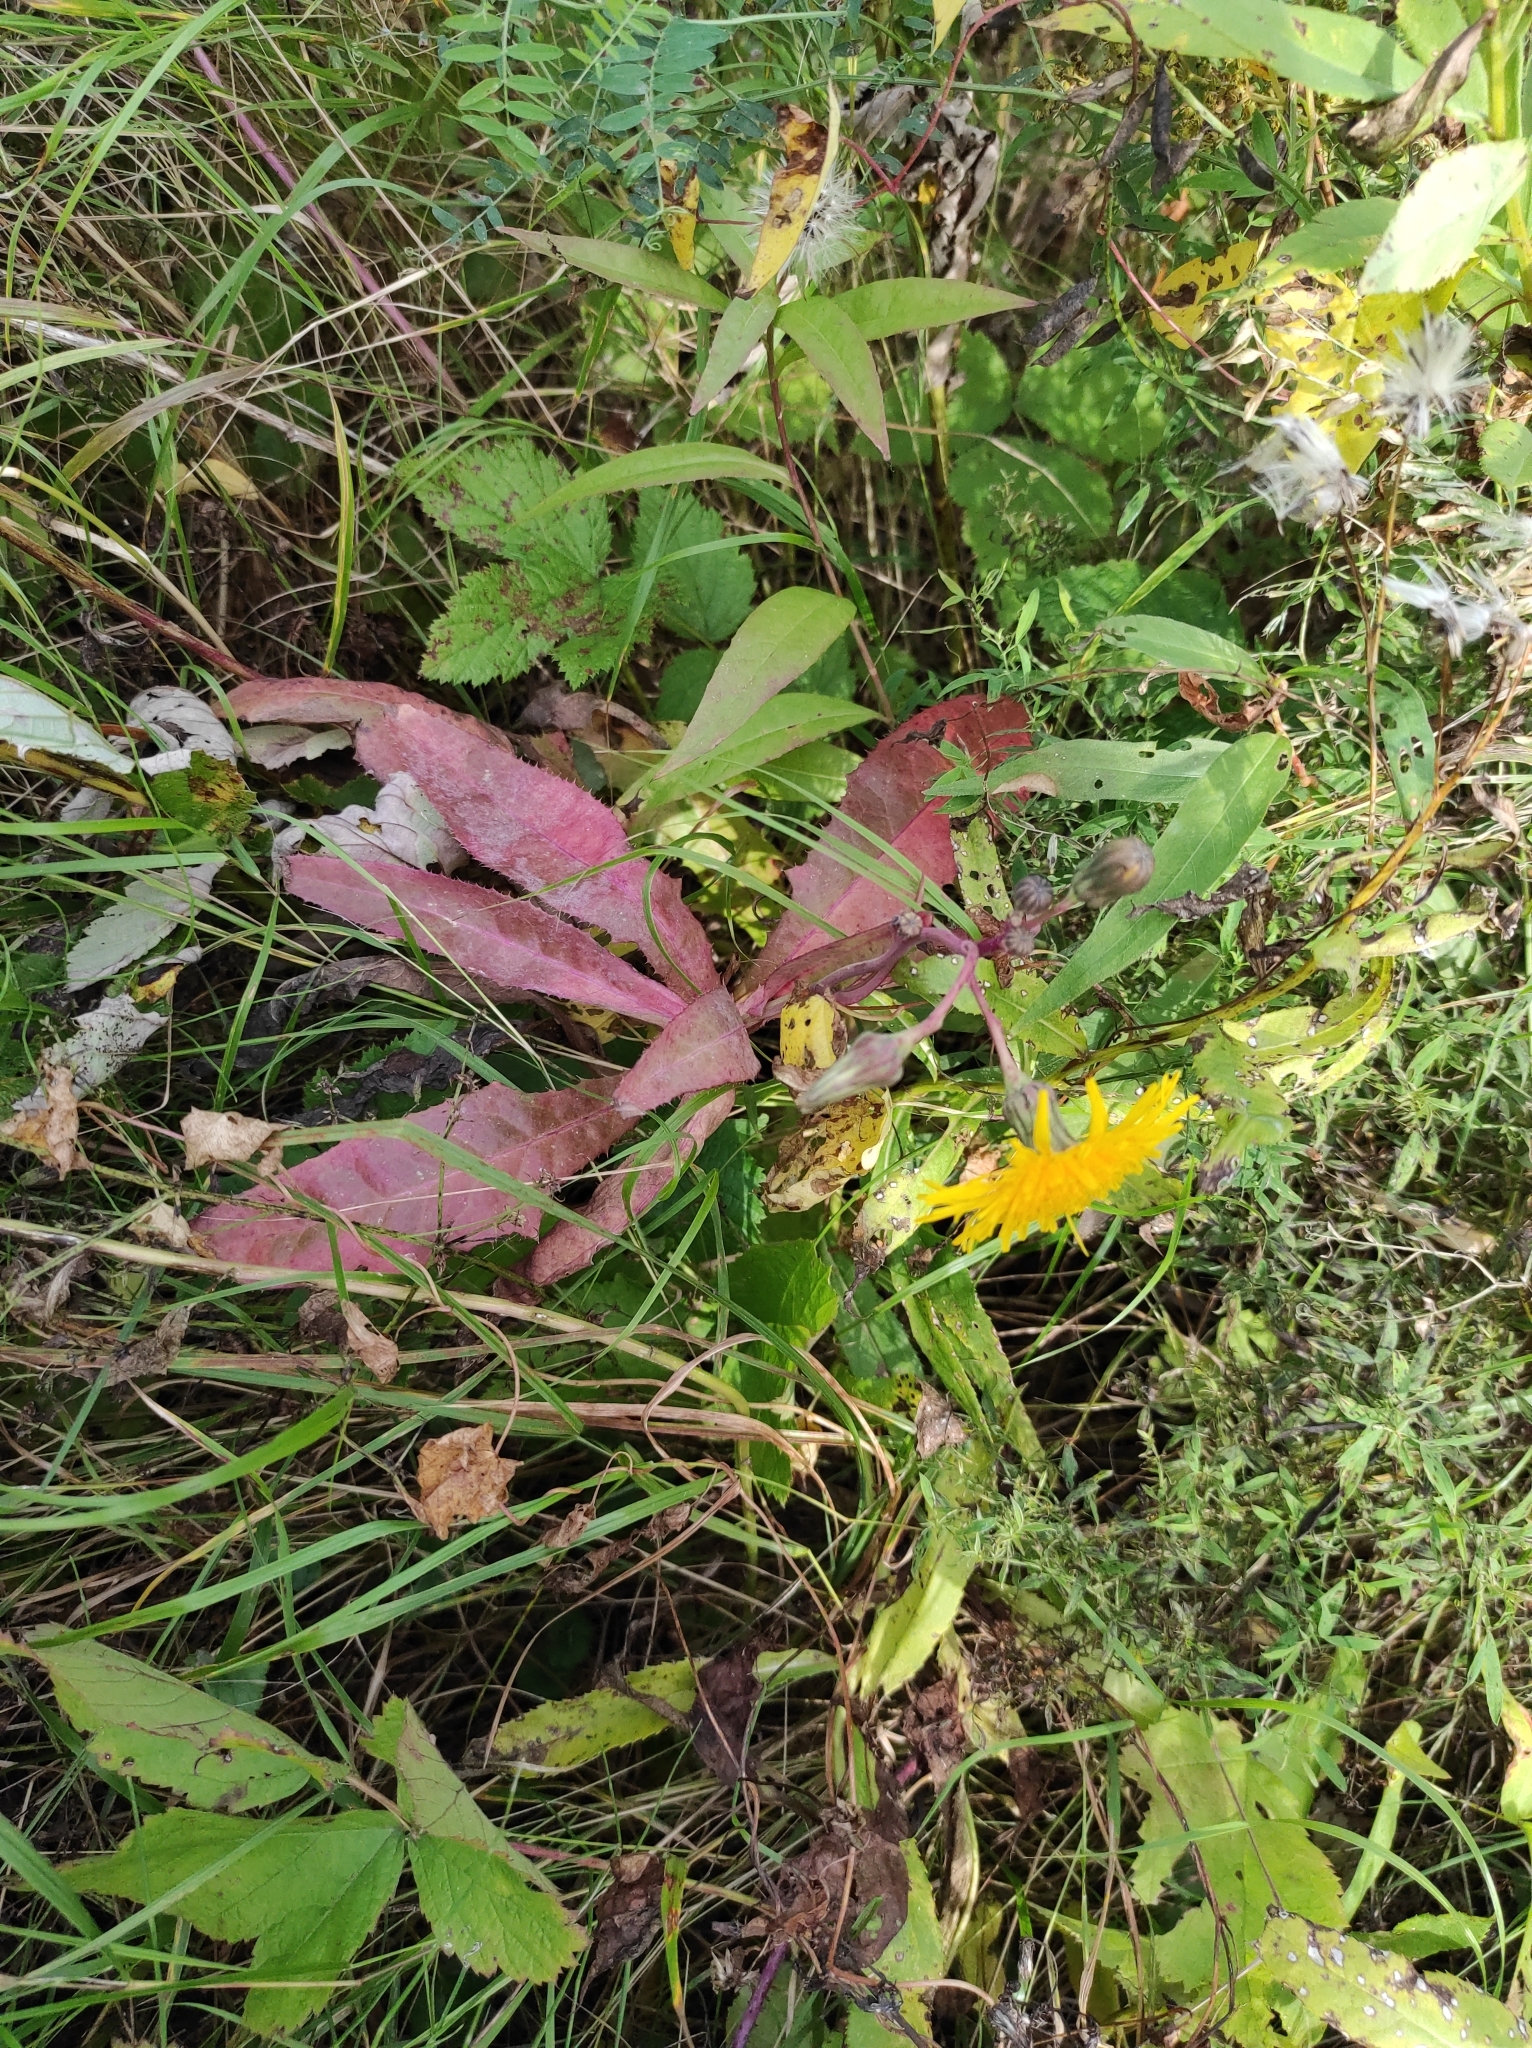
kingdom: Plantae
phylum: Tracheophyta
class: Magnoliopsida
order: Asterales
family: Asteraceae
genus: Sonchus
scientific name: Sonchus arvensis
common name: Perennial sow-thistle
